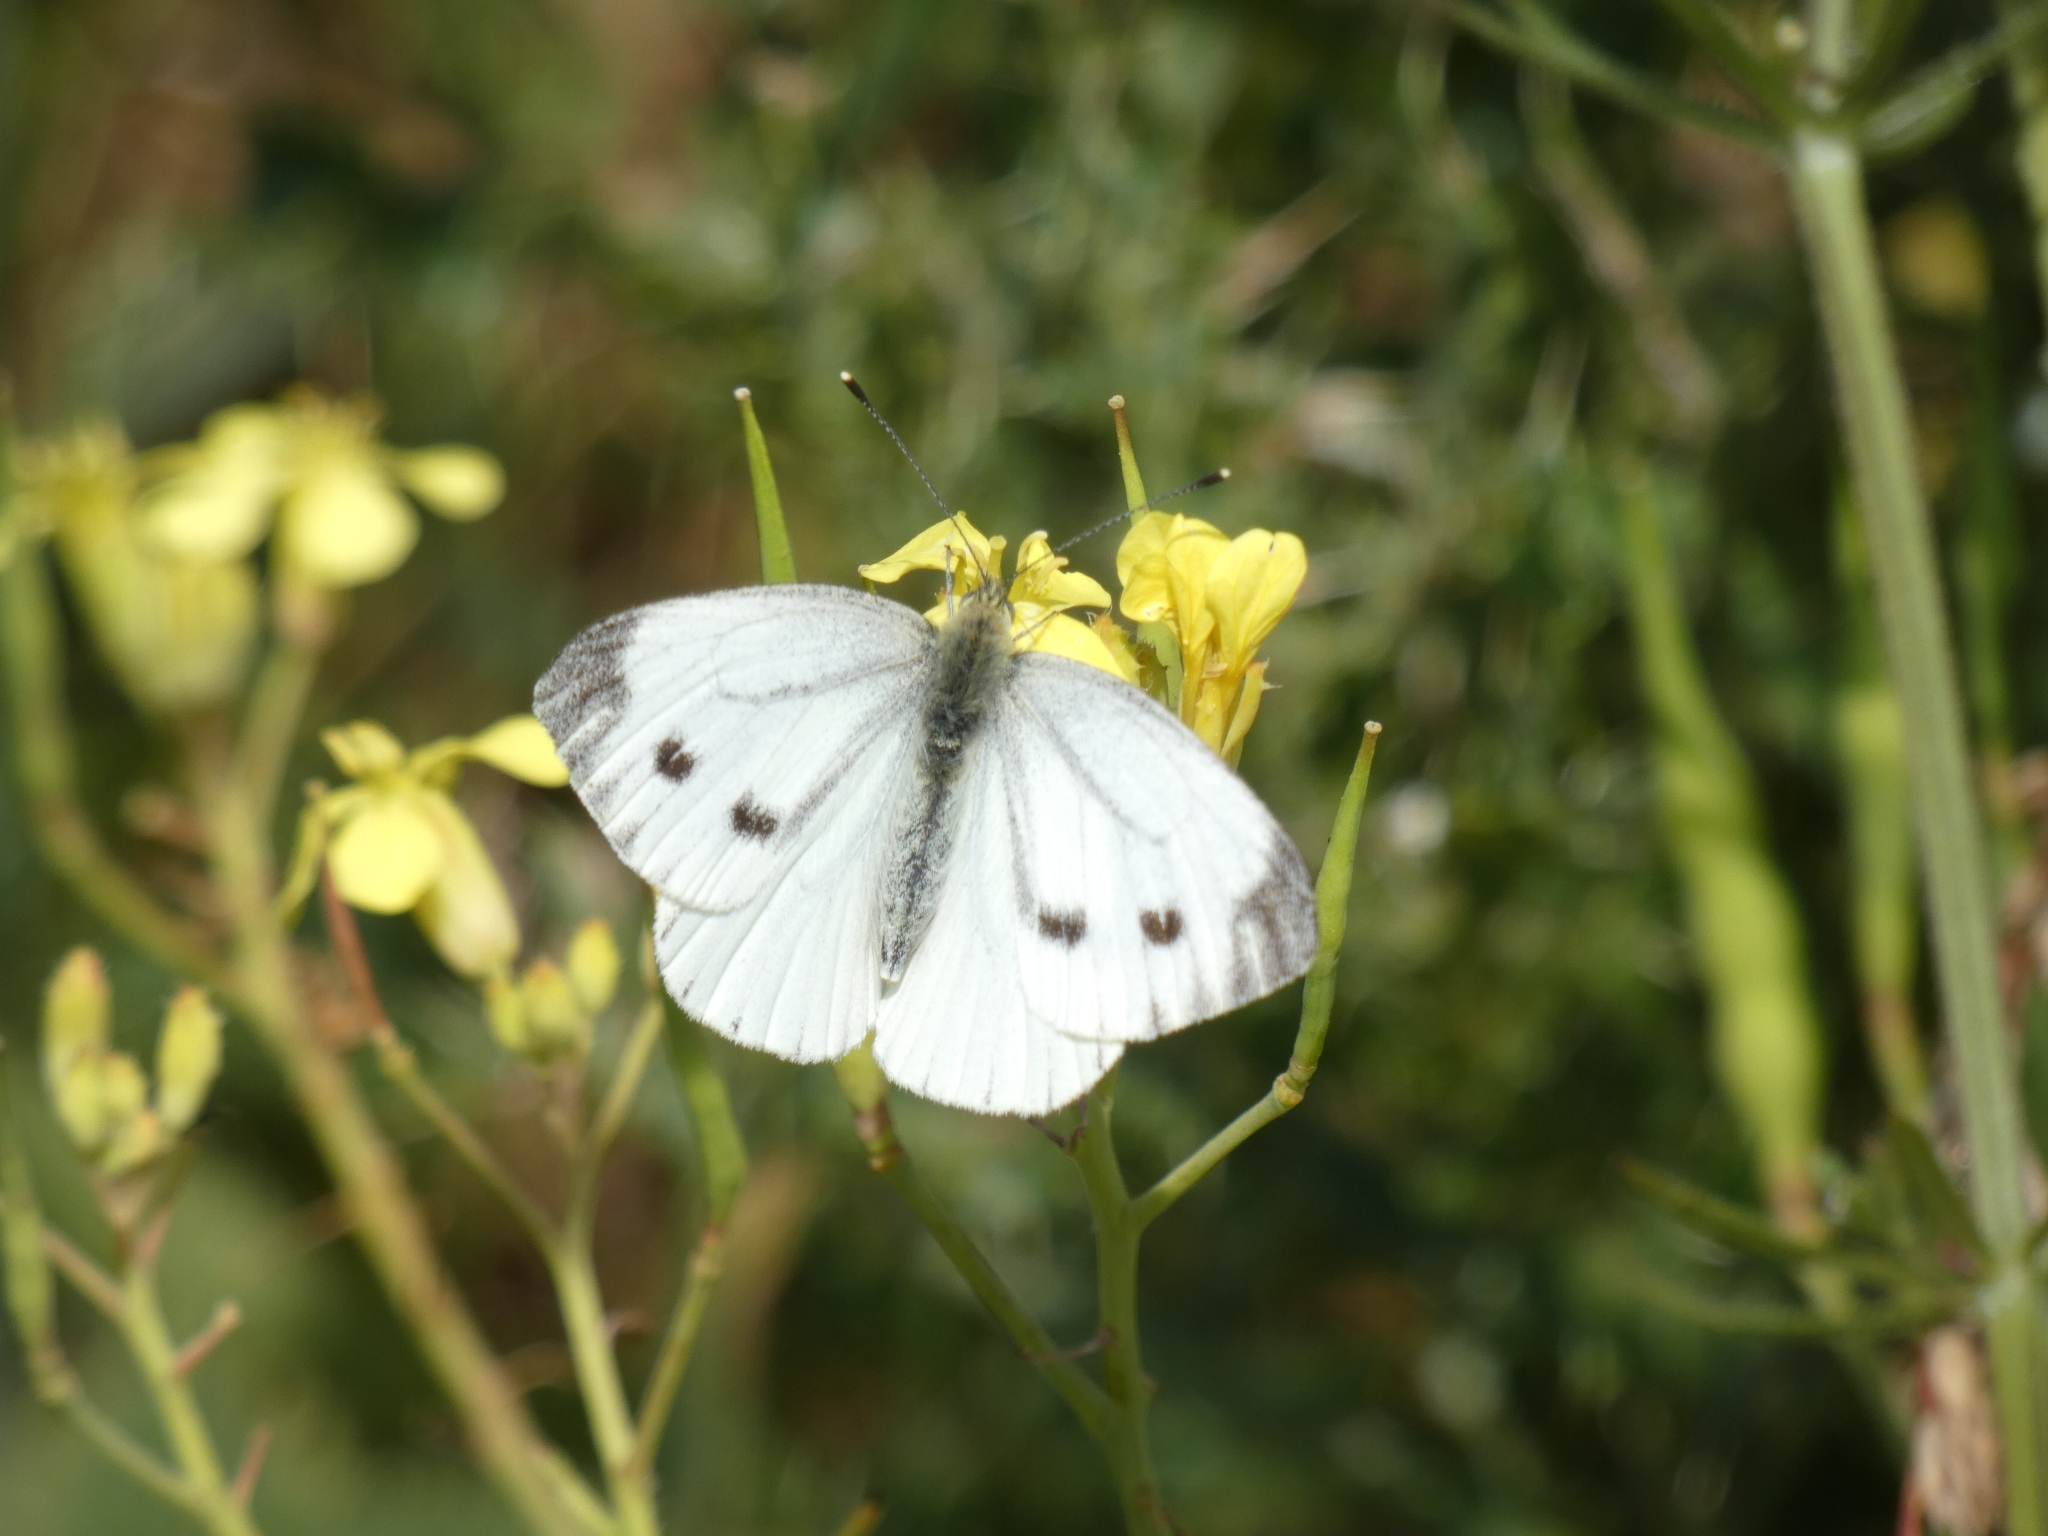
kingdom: Animalia
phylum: Arthropoda
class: Insecta
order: Lepidoptera
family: Pieridae
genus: Pieris
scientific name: Pieris napi
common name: Green-veined white
